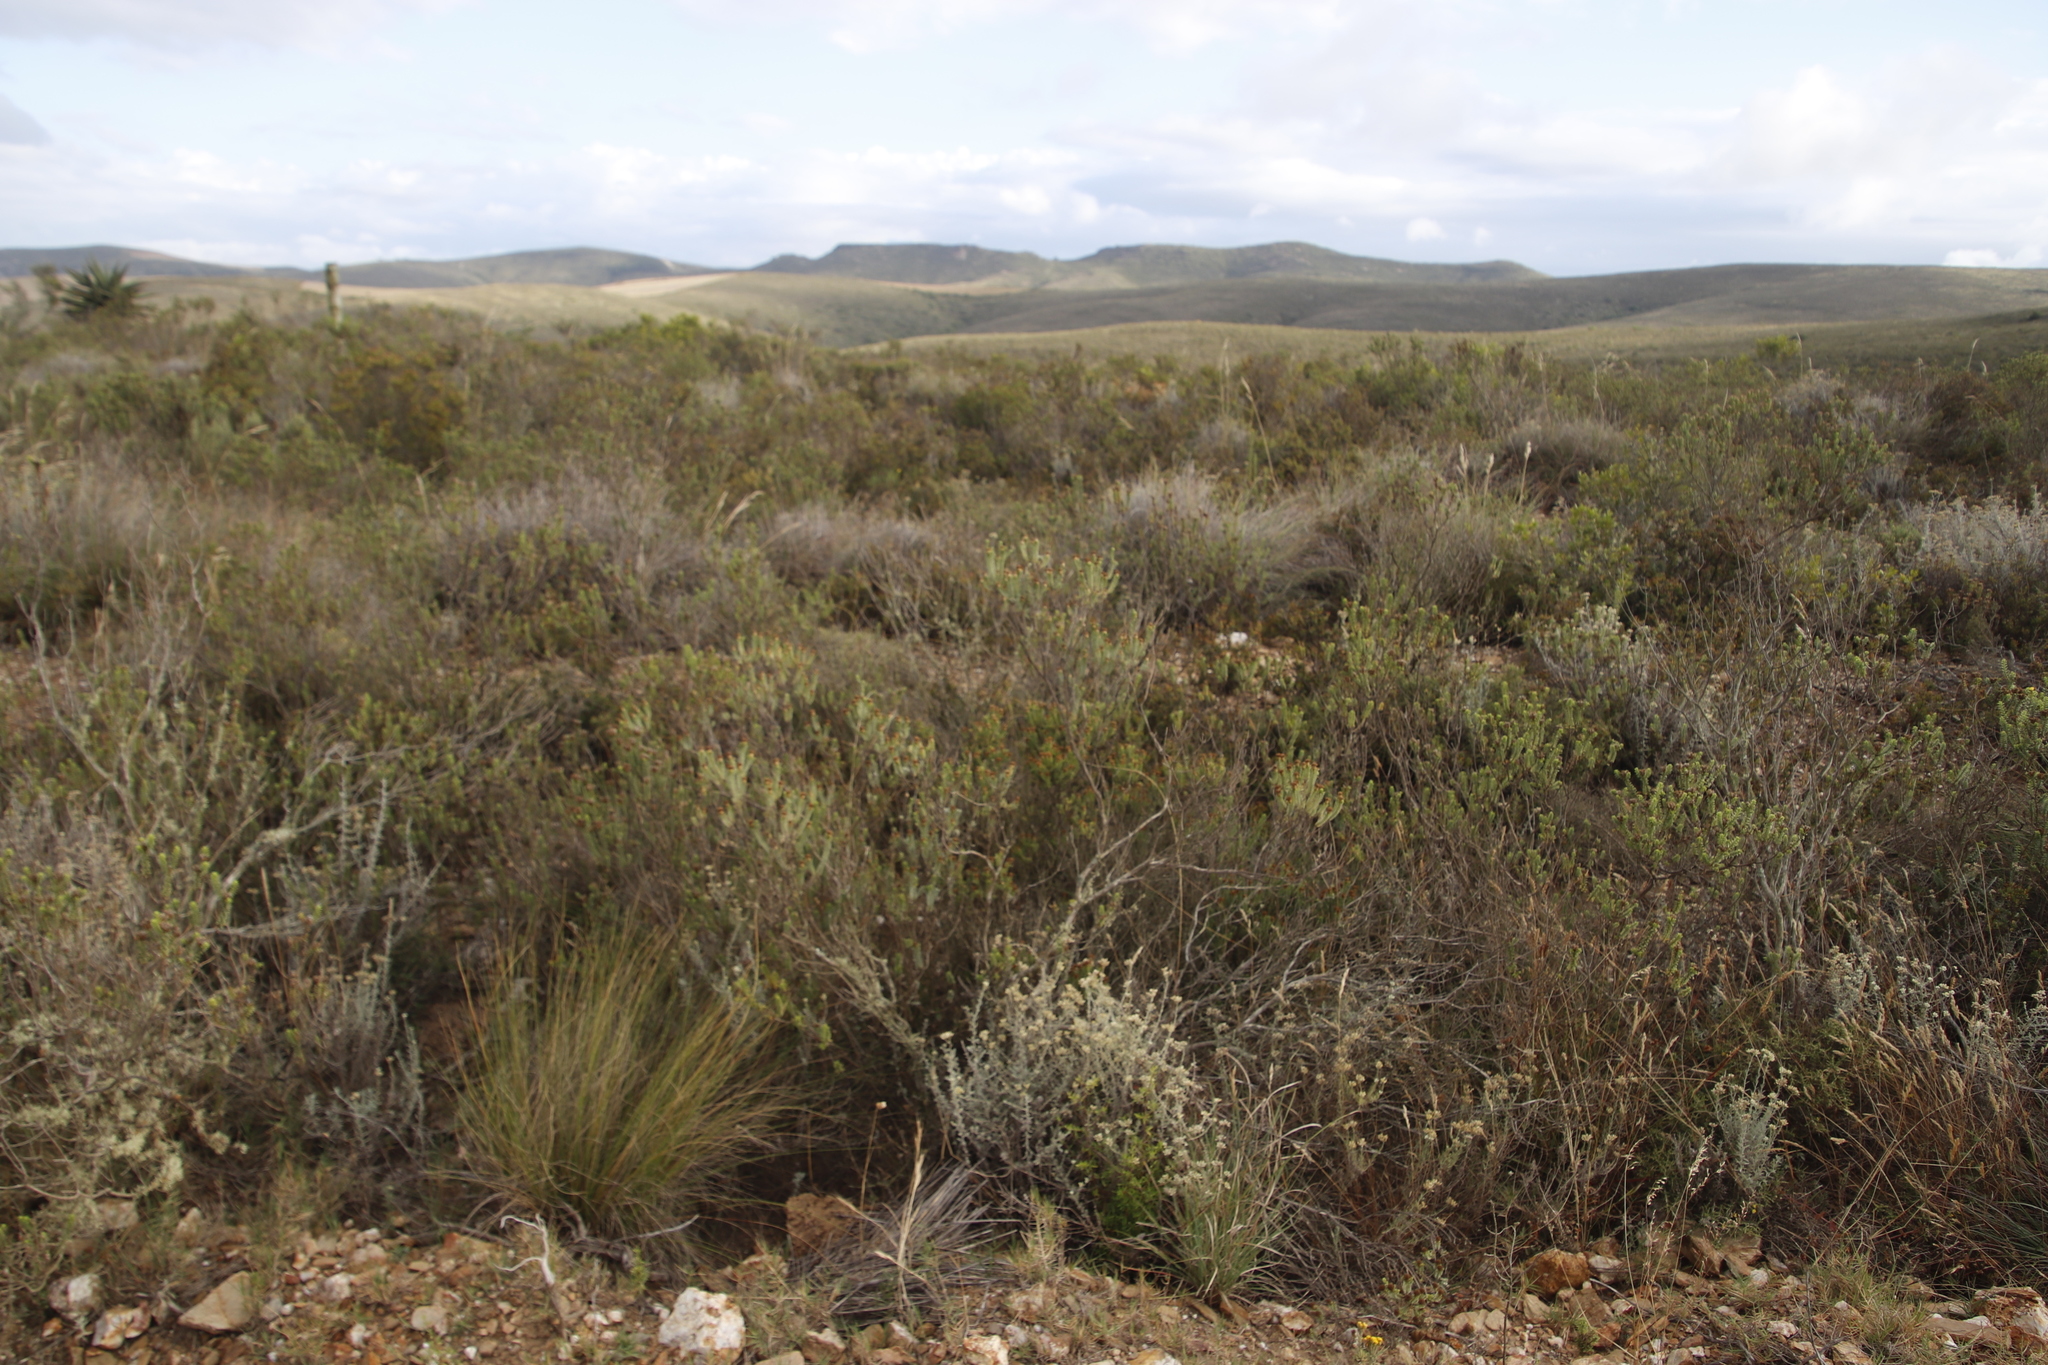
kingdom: Plantae
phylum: Tracheophyta
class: Magnoliopsida
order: Asterales
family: Asteraceae
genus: Oedera
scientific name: Oedera uniflora
